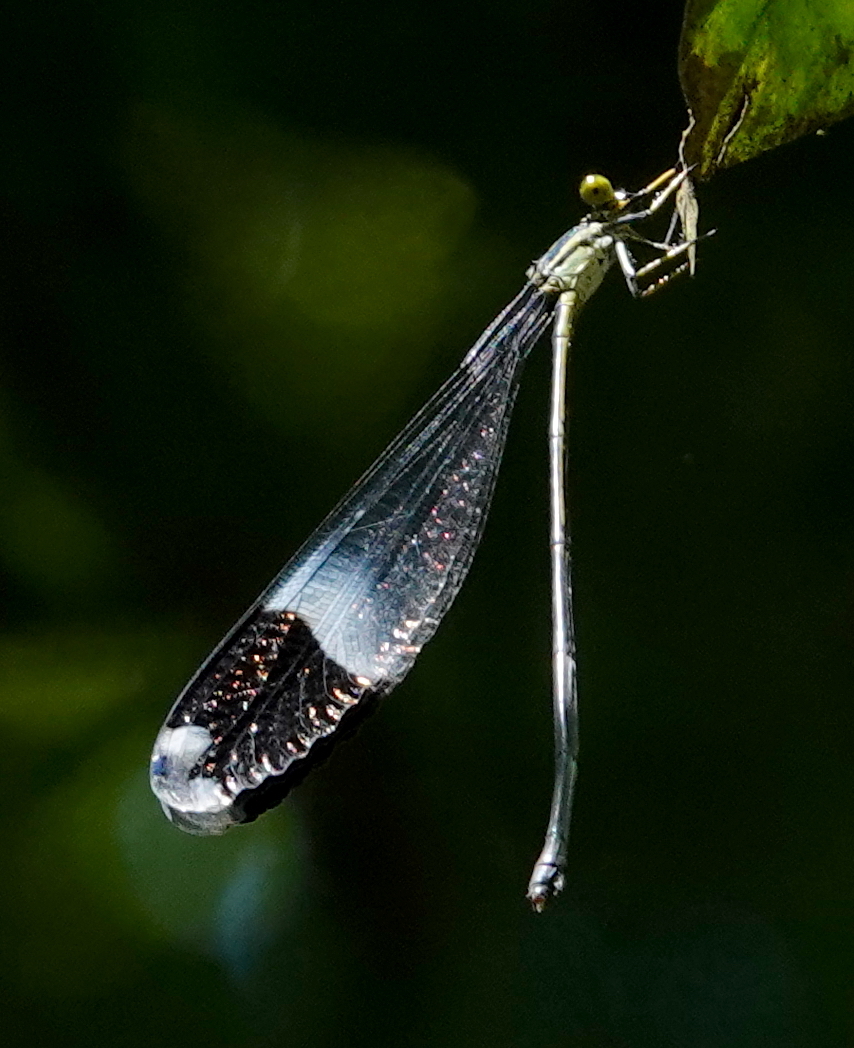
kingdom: Animalia
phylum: Arthropoda
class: Insecta
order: Odonata
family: Coenagrionidae
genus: Megaloprepus
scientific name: Megaloprepus caerulatus
